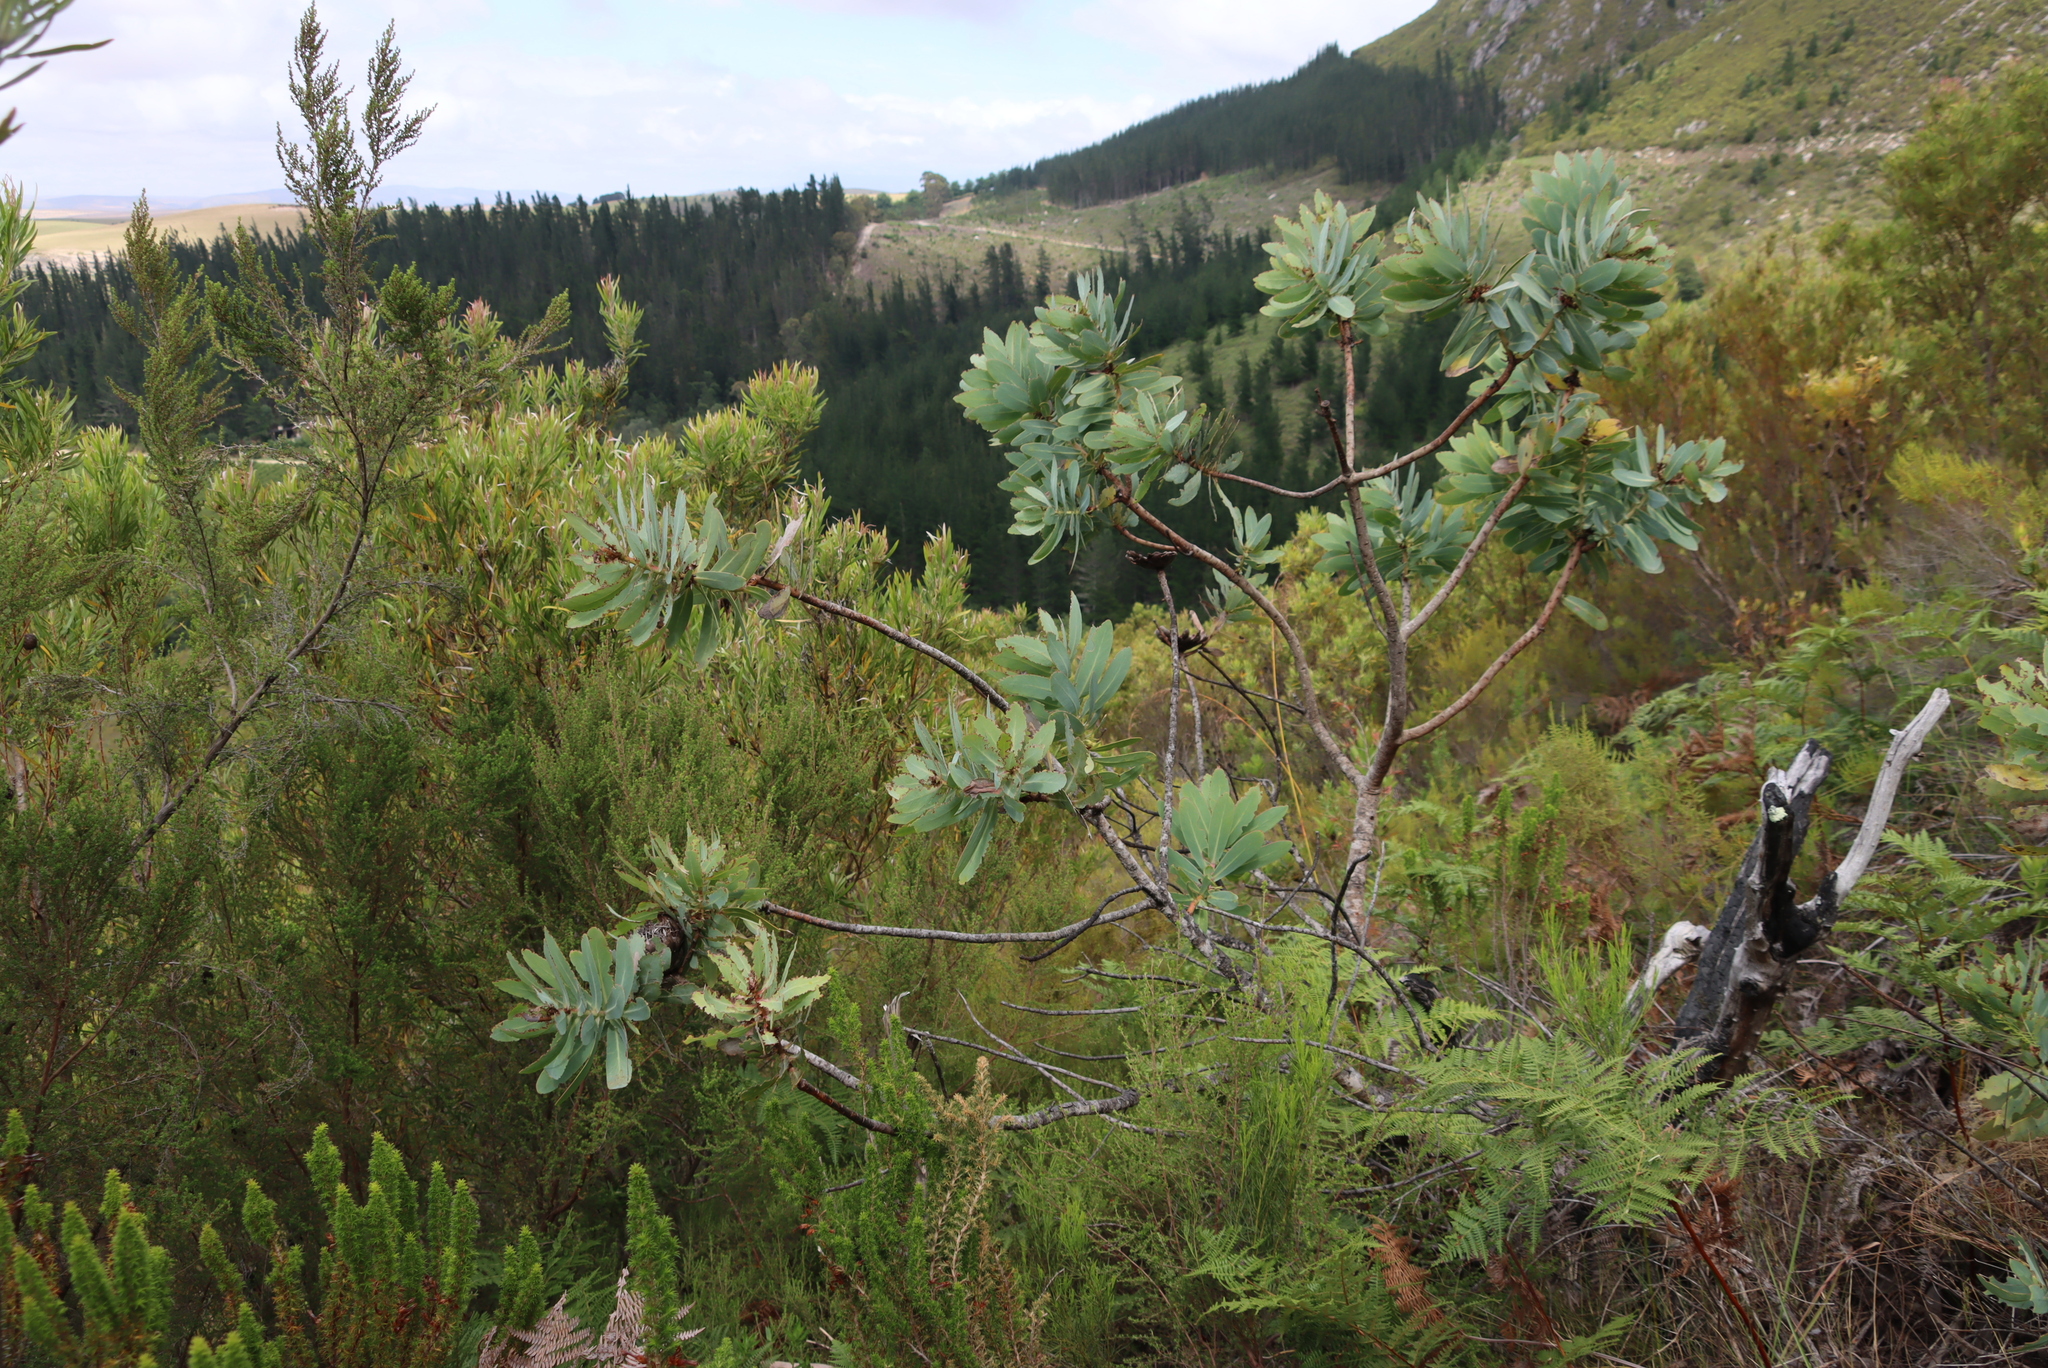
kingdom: Plantae
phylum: Tracheophyta
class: Magnoliopsida
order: Proteales
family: Proteaceae
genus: Protea
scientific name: Protea nitida
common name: Tree protea
